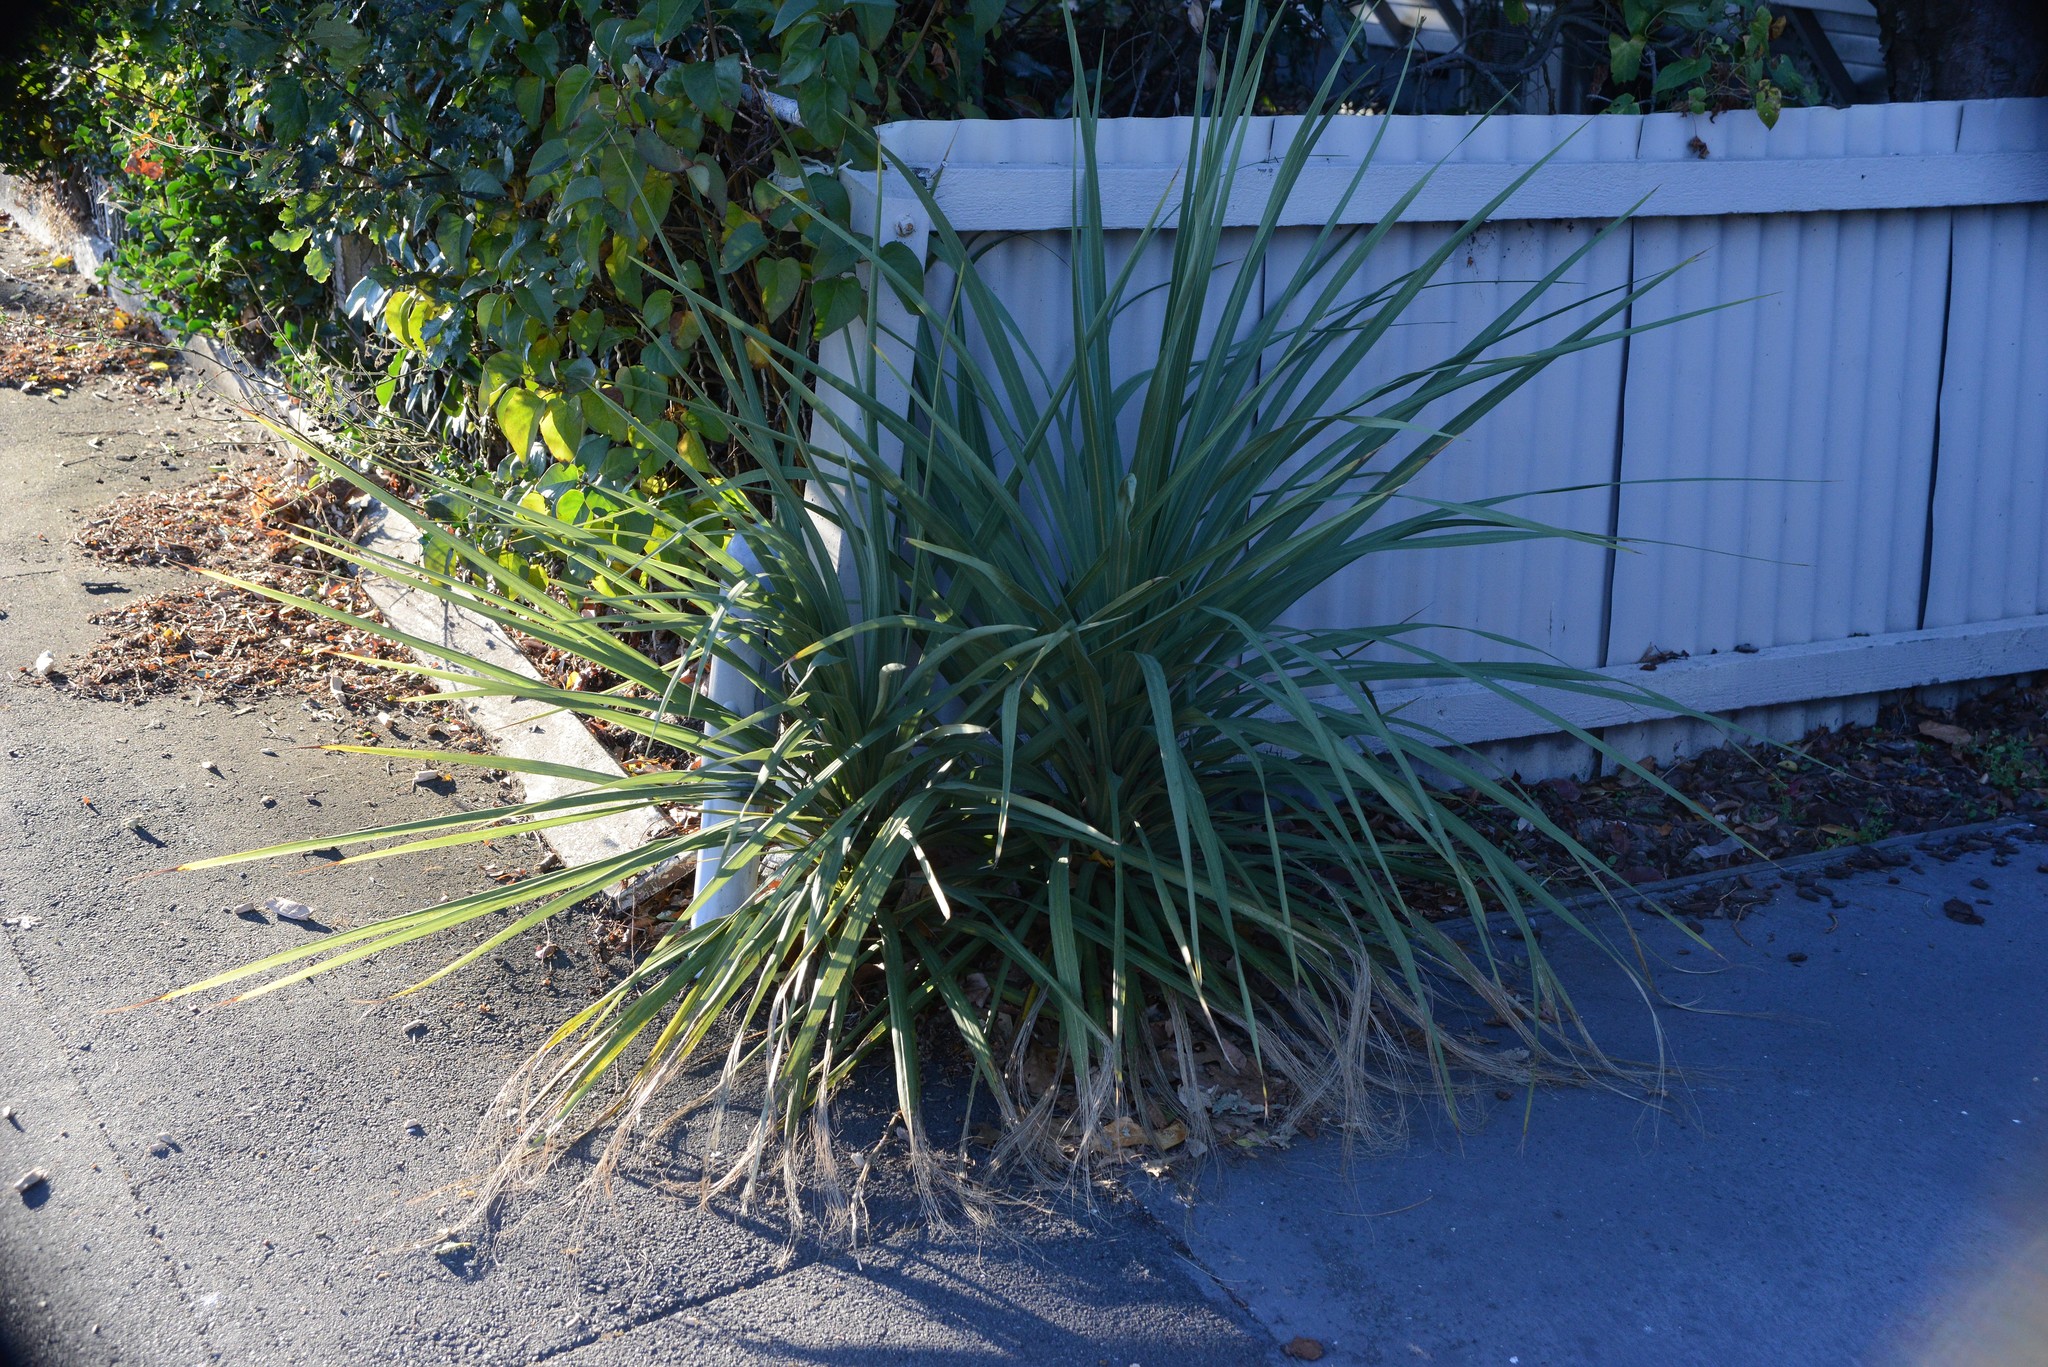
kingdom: Plantae
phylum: Tracheophyta
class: Liliopsida
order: Asparagales
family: Asparagaceae
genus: Cordyline
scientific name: Cordyline australis
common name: Cabbage-palm
